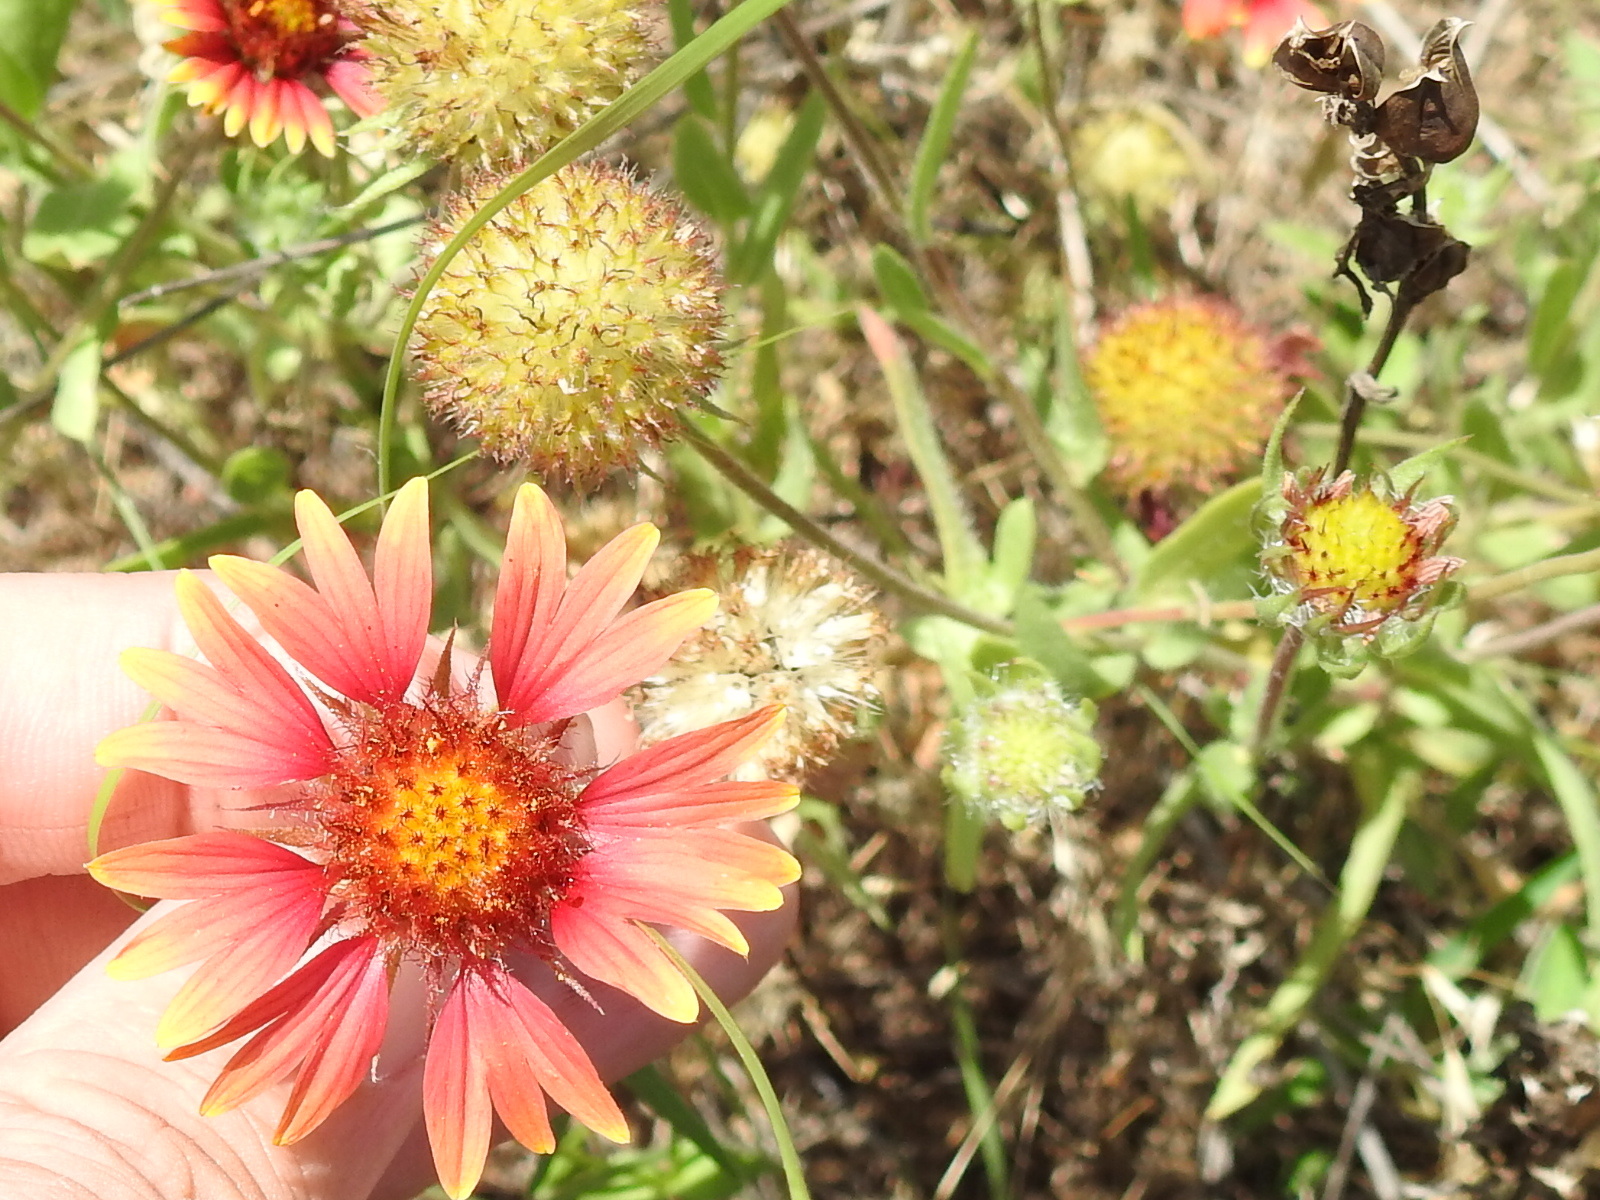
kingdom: Plantae
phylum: Tracheophyta
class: Magnoliopsida
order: Asterales
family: Asteraceae
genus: Gaillardia
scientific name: Gaillardia pulchella
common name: Firewheel
